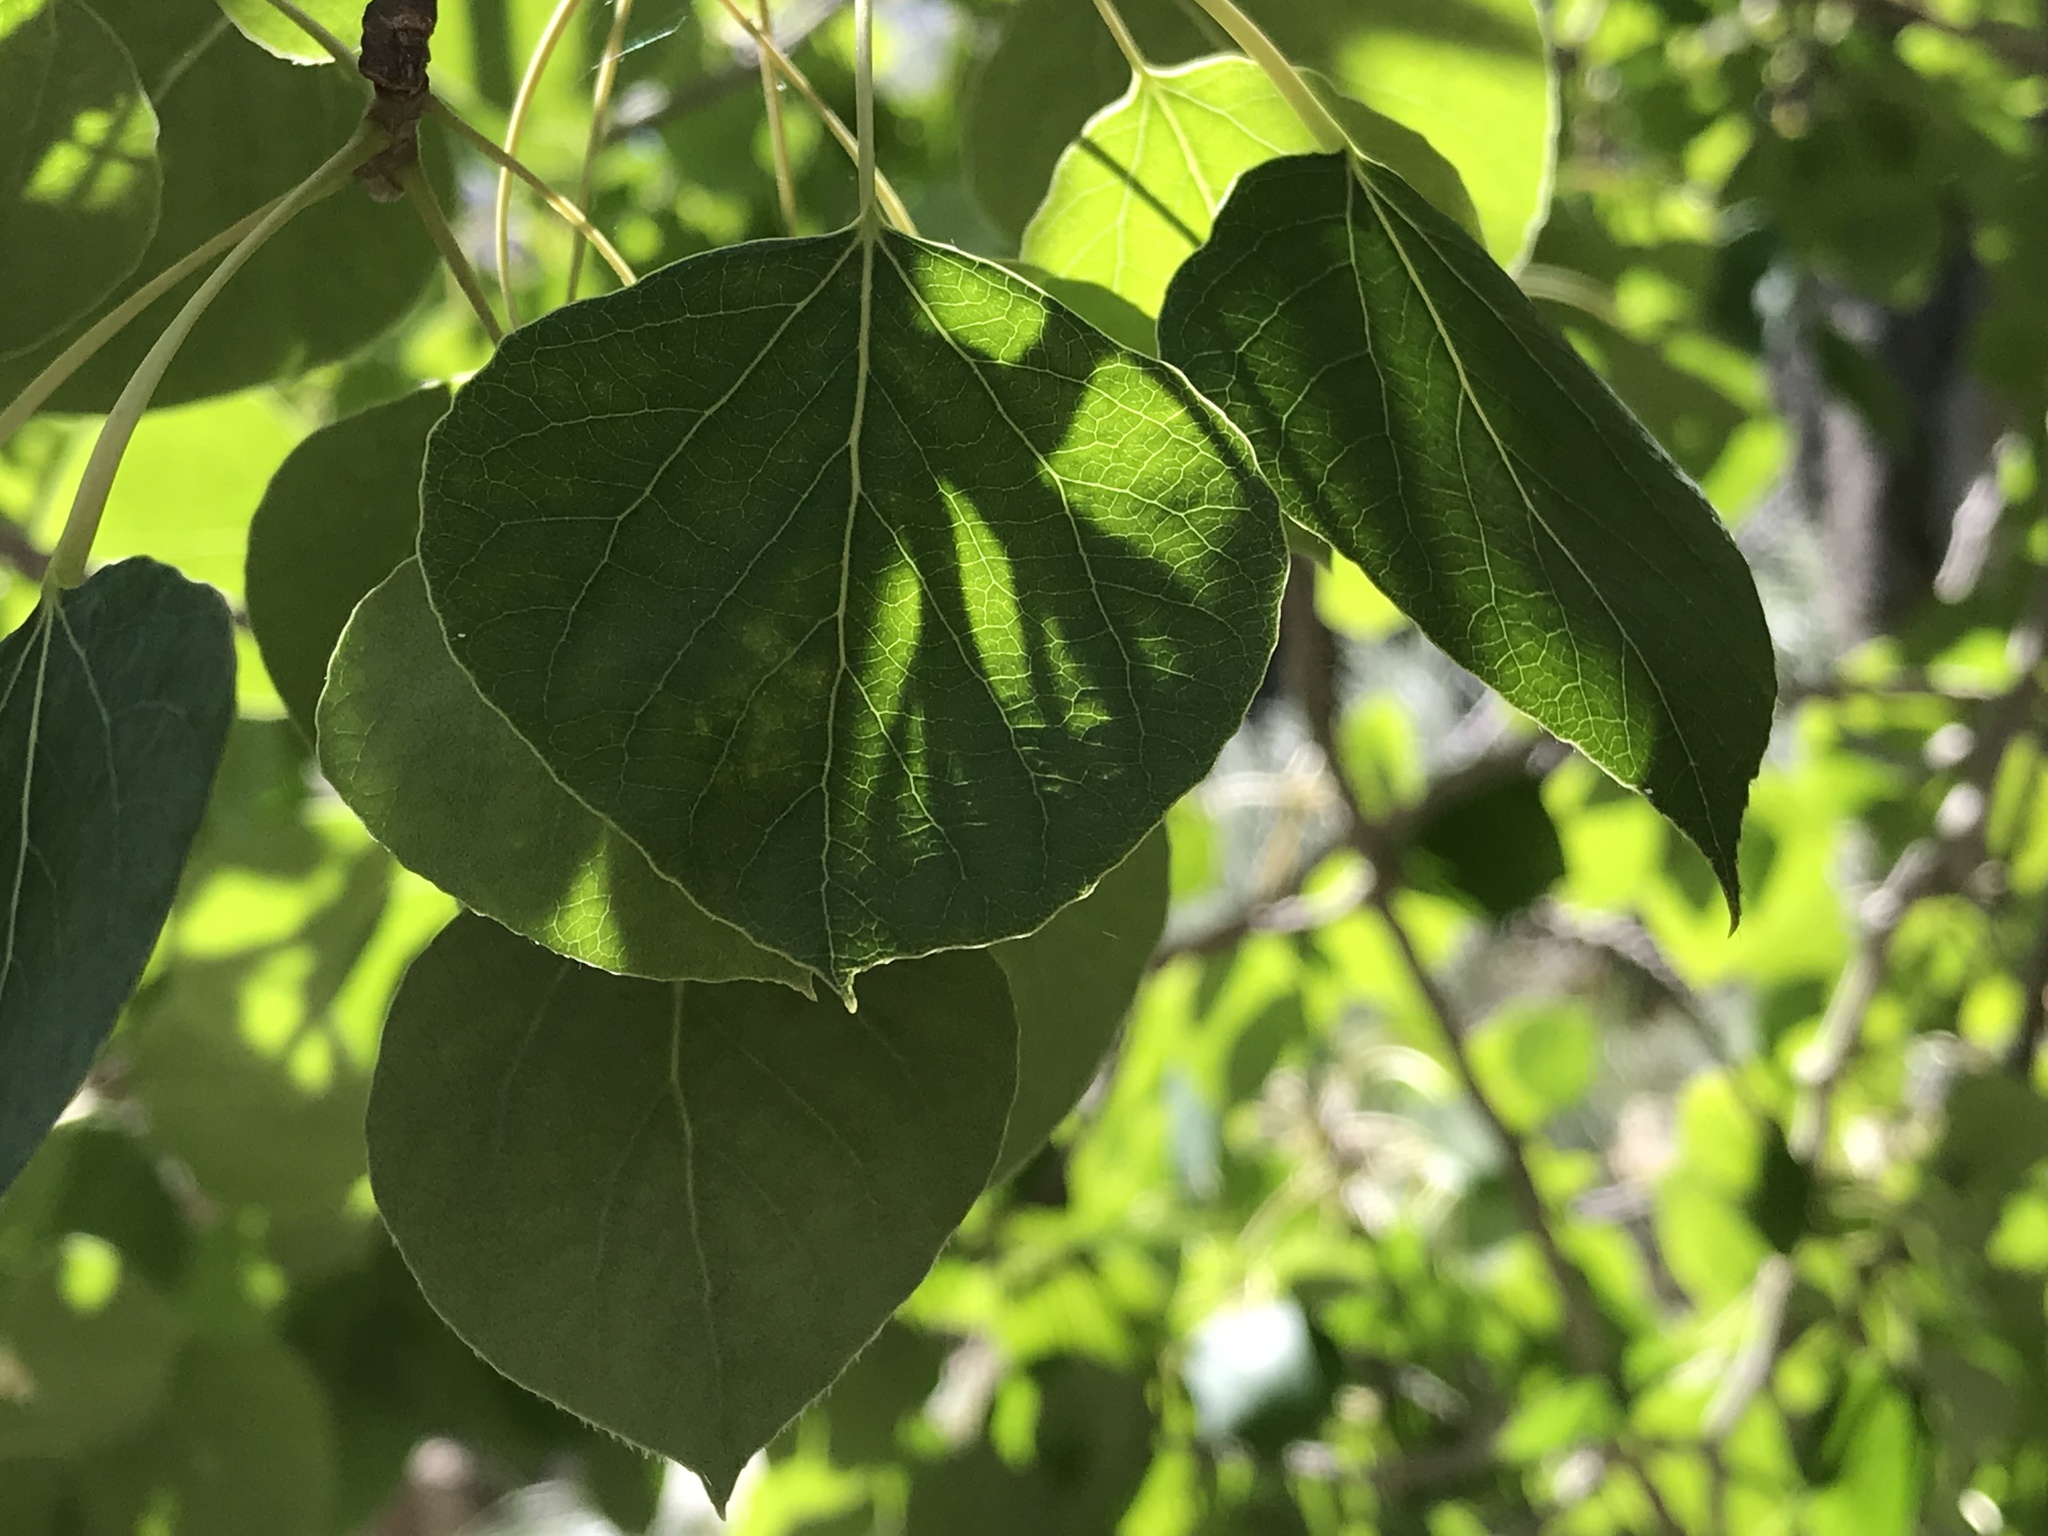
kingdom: Plantae
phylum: Tracheophyta
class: Magnoliopsida
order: Malpighiales
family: Salicaceae
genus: Populus
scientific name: Populus tremuloides
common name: Quaking aspen
